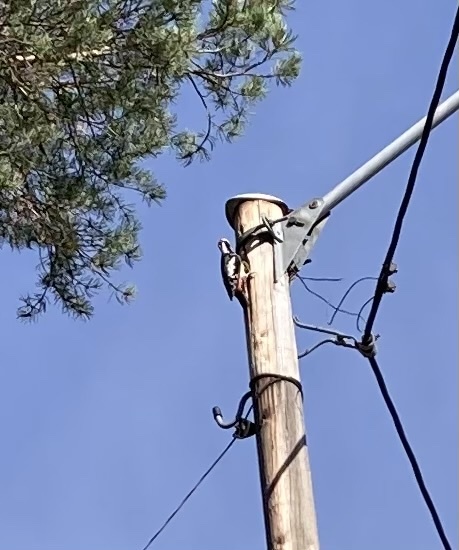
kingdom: Animalia
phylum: Chordata
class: Aves
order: Piciformes
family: Picidae
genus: Dendrocopos
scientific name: Dendrocopos major
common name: Great spotted woodpecker
